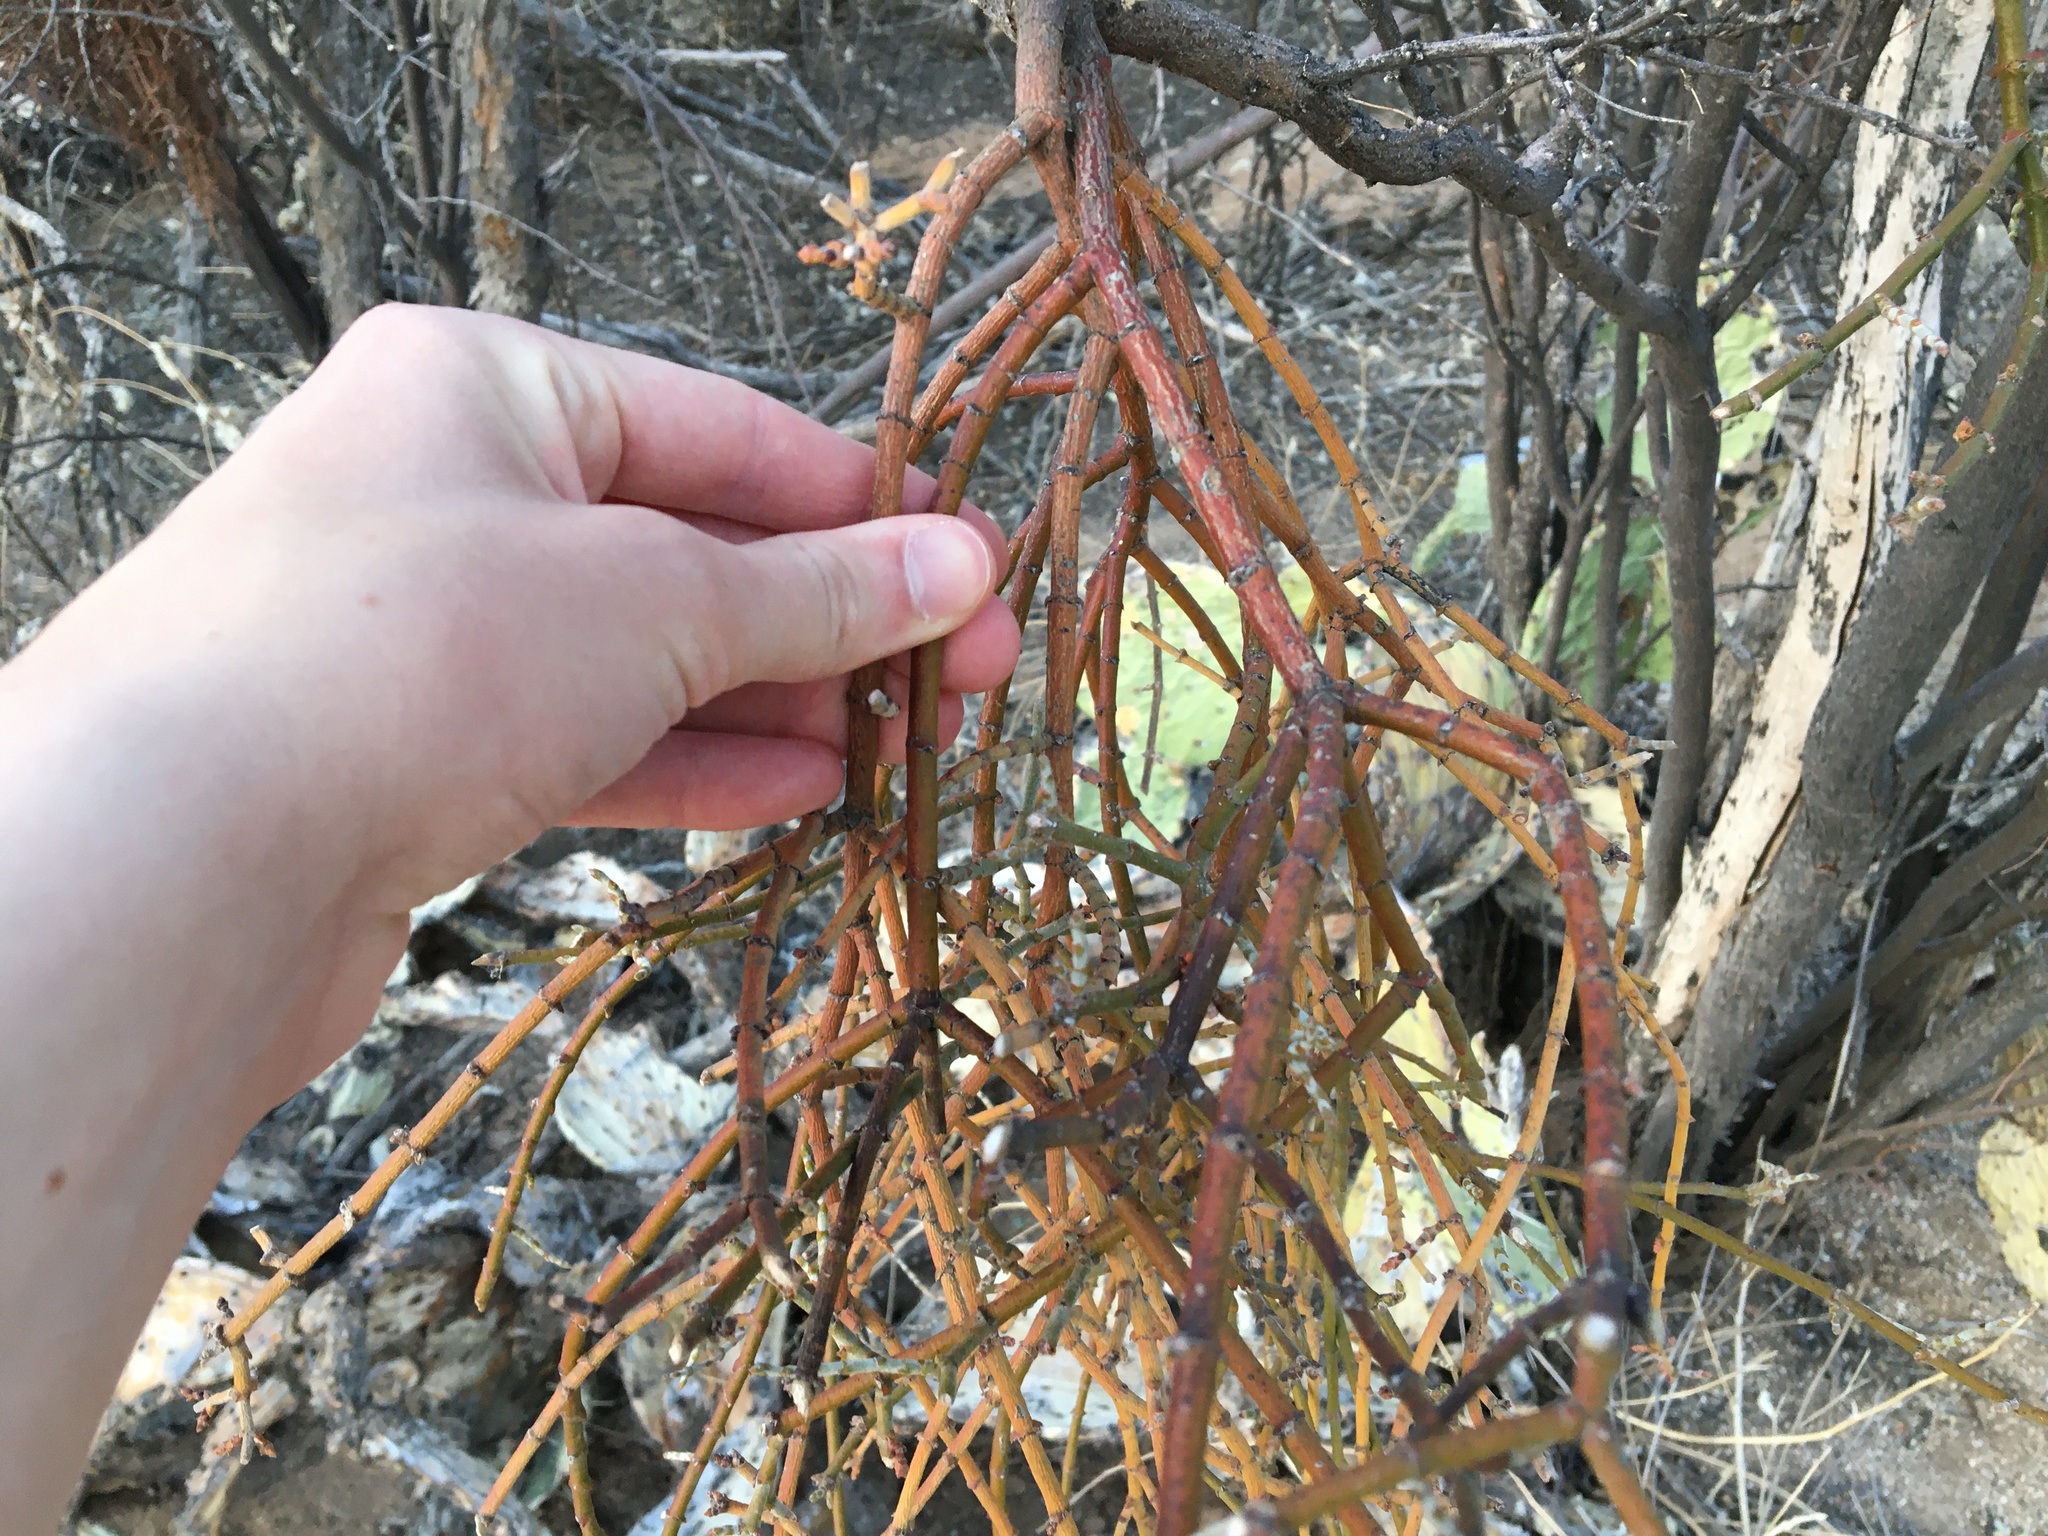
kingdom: Plantae
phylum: Tracheophyta
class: Magnoliopsida
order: Santalales
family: Viscaceae
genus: Phoradendron
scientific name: Phoradendron californicum
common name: Acacia mistletoe
